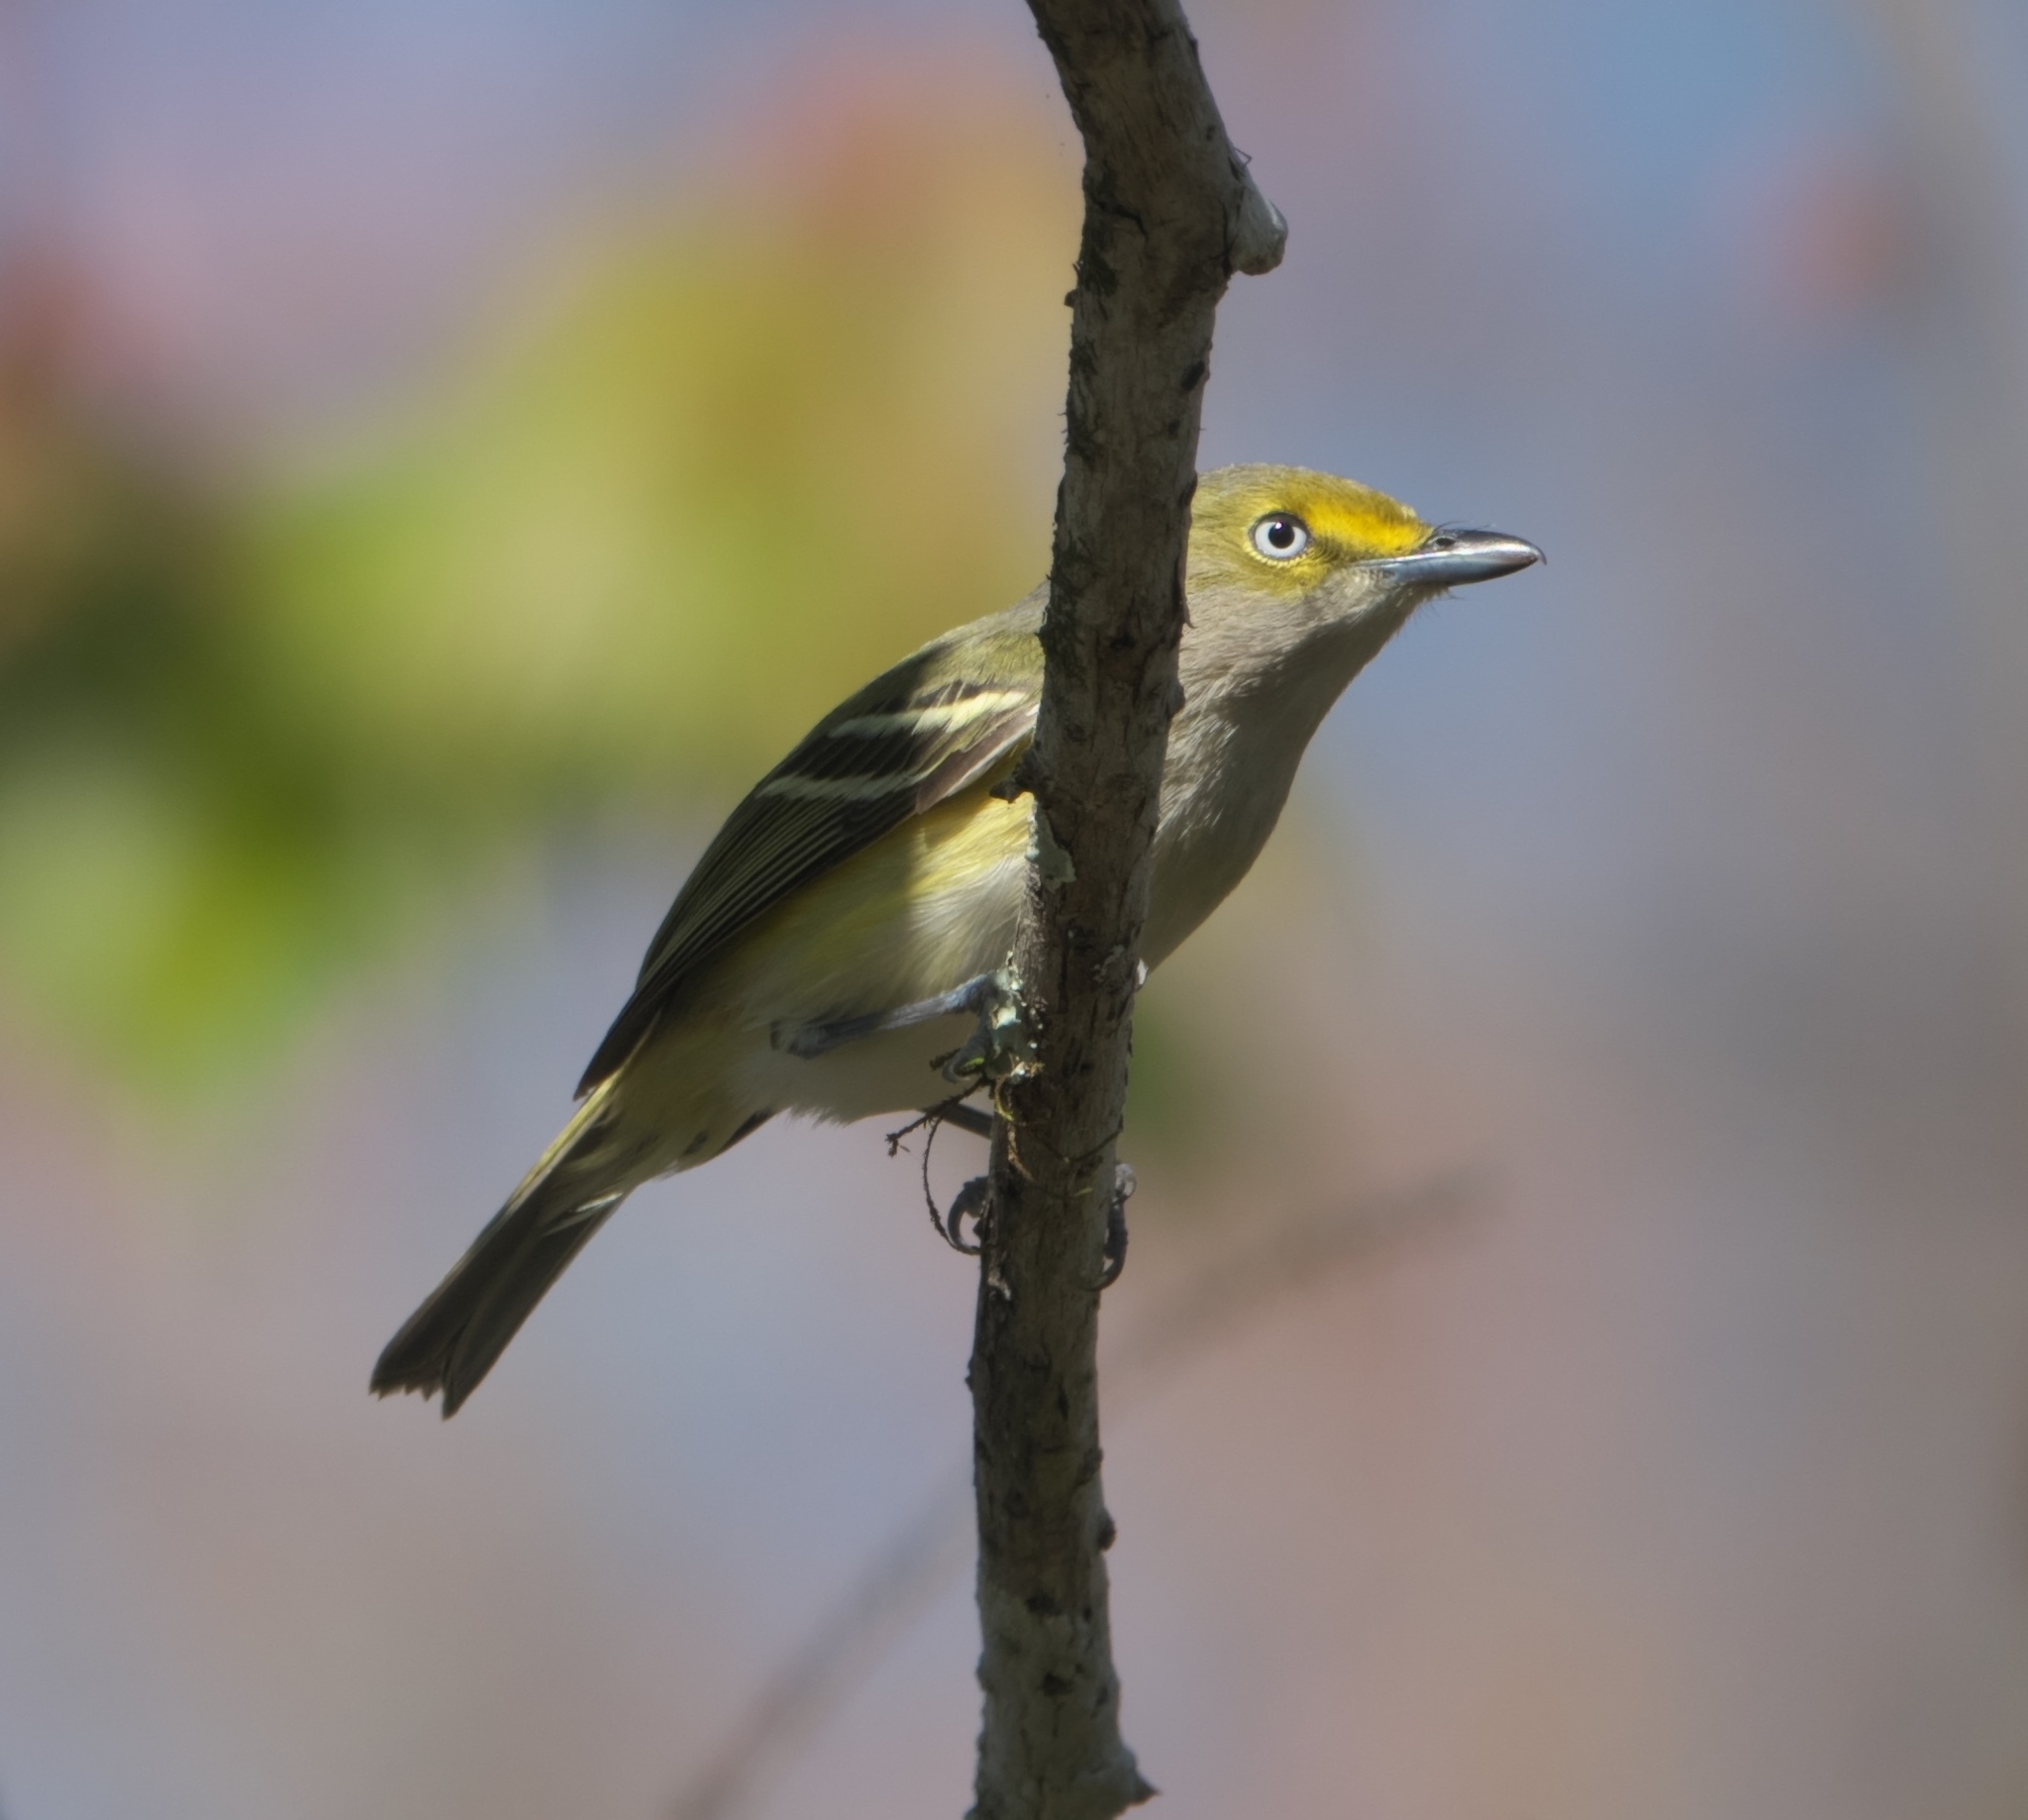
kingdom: Animalia
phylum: Chordata
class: Aves
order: Passeriformes
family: Vireonidae
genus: Vireo
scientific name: Vireo griseus
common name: White-eyed vireo
